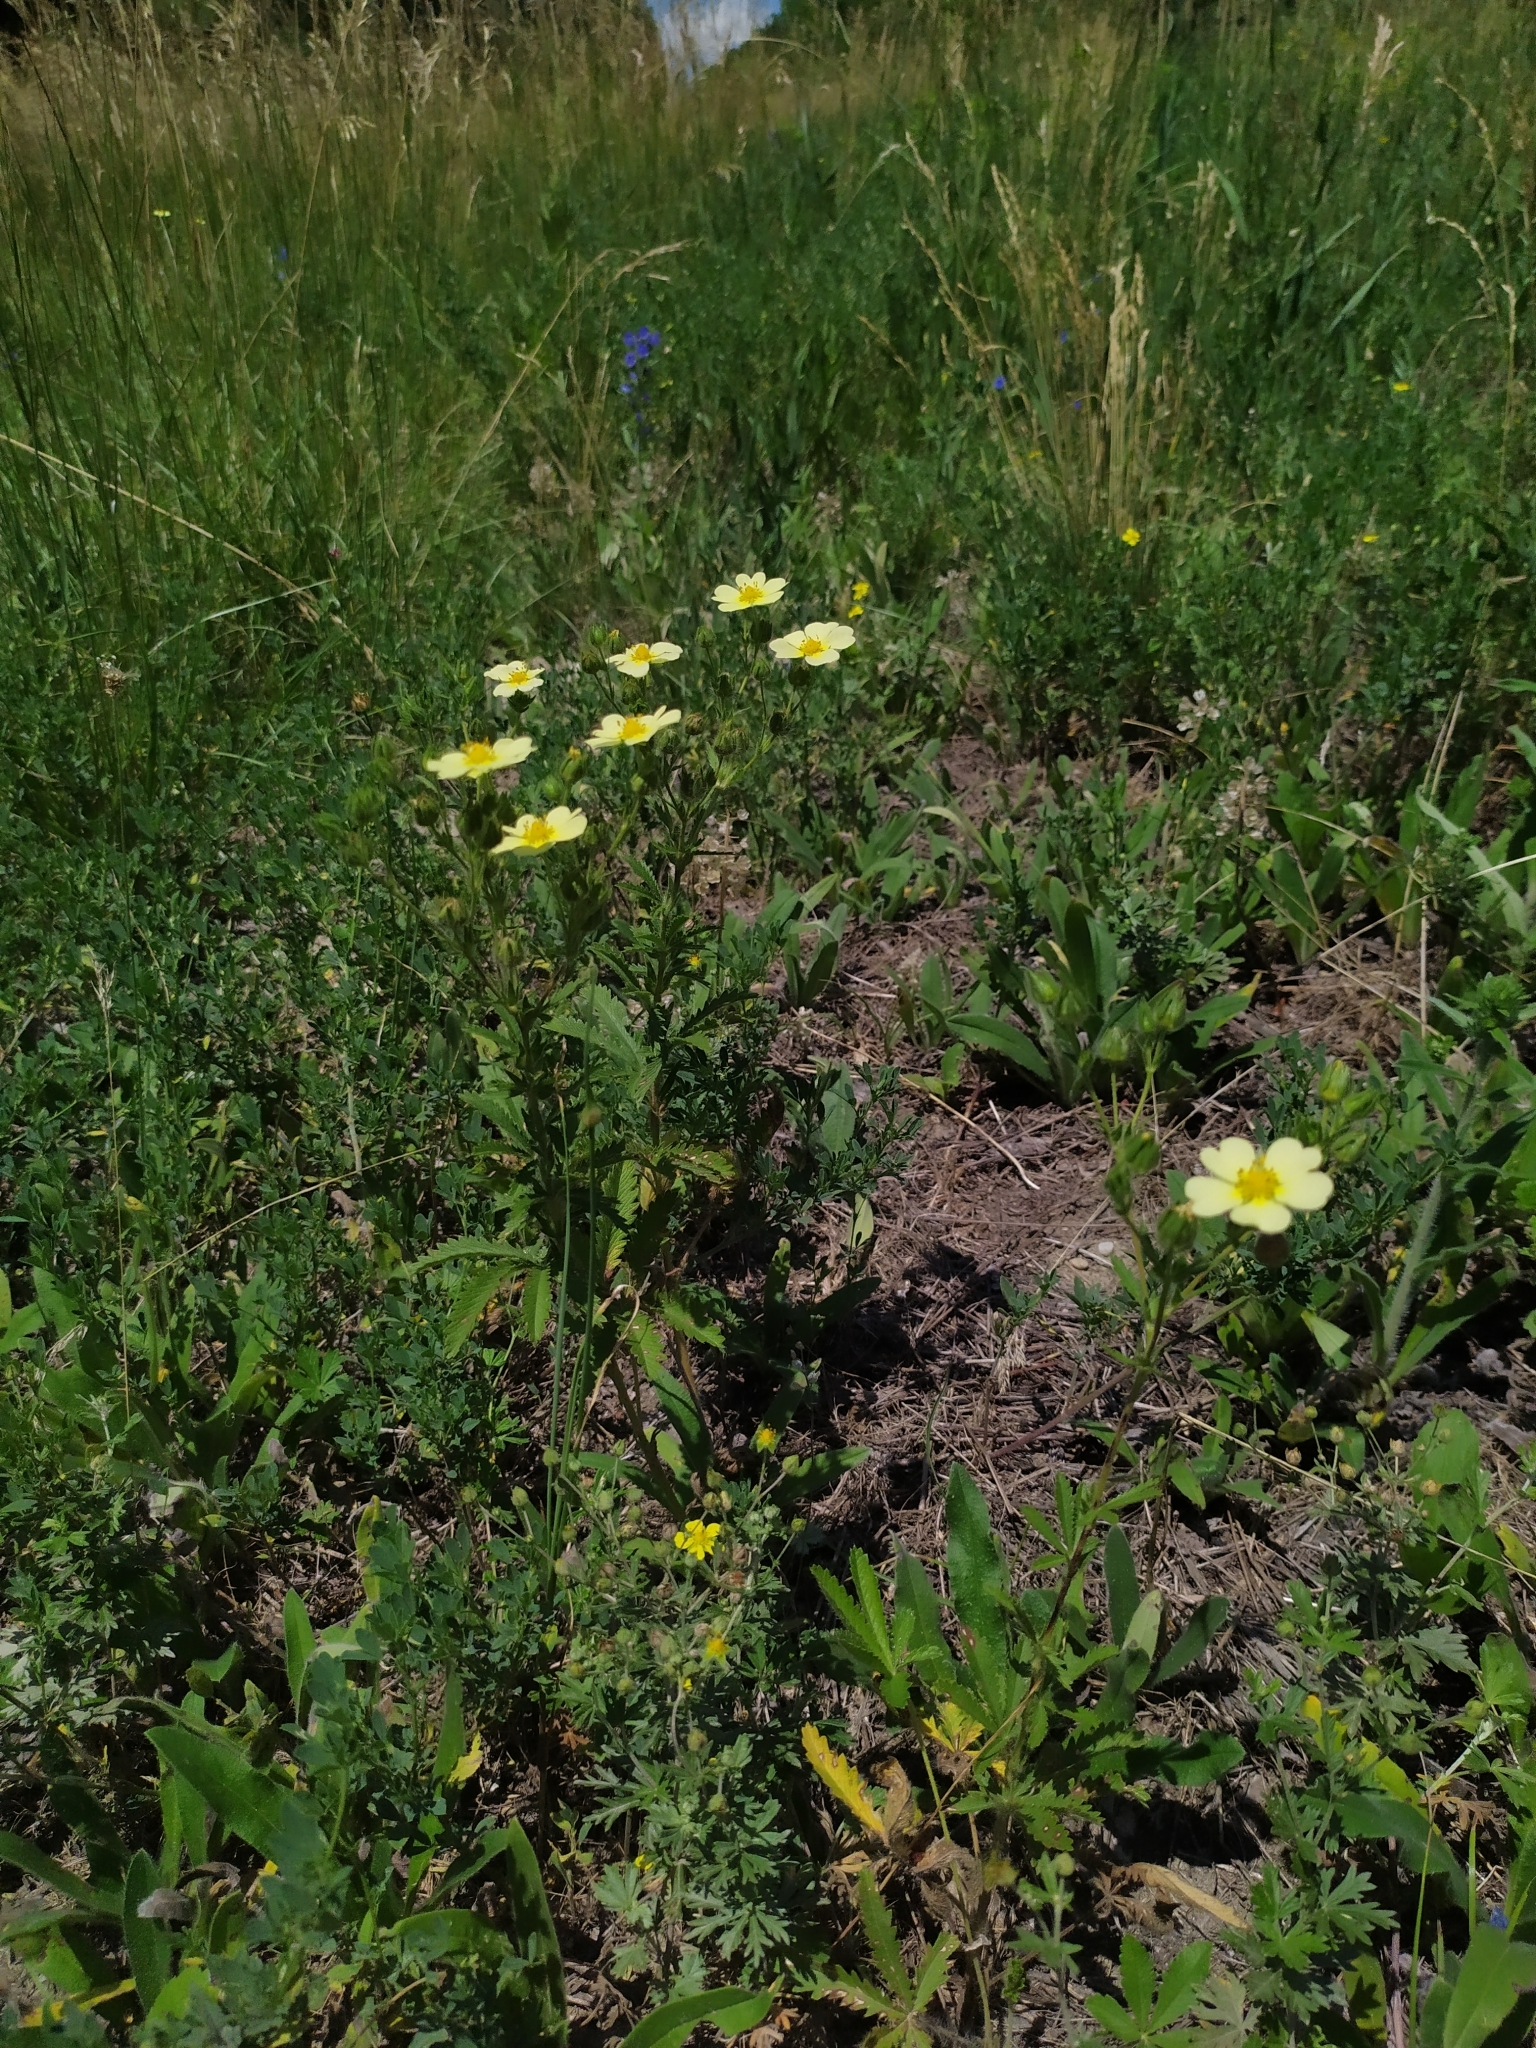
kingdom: Plantae
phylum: Tracheophyta
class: Magnoliopsida
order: Rosales
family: Rosaceae
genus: Potentilla
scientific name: Potentilla recta
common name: Sulphur cinquefoil
